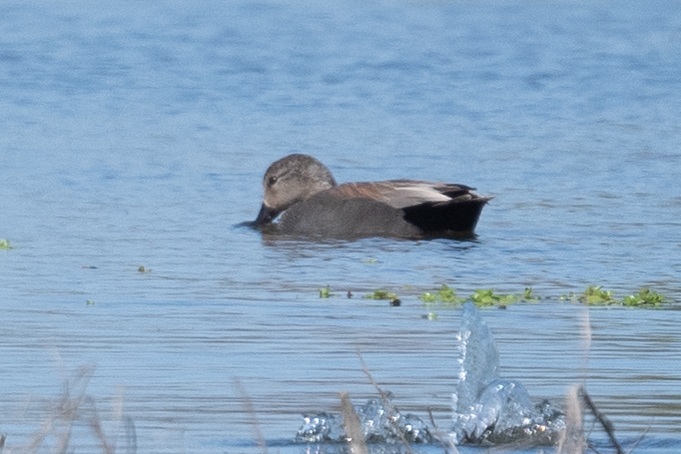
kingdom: Animalia
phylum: Chordata
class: Aves
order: Anseriformes
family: Anatidae
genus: Mareca
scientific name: Mareca strepera
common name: Gadwall
